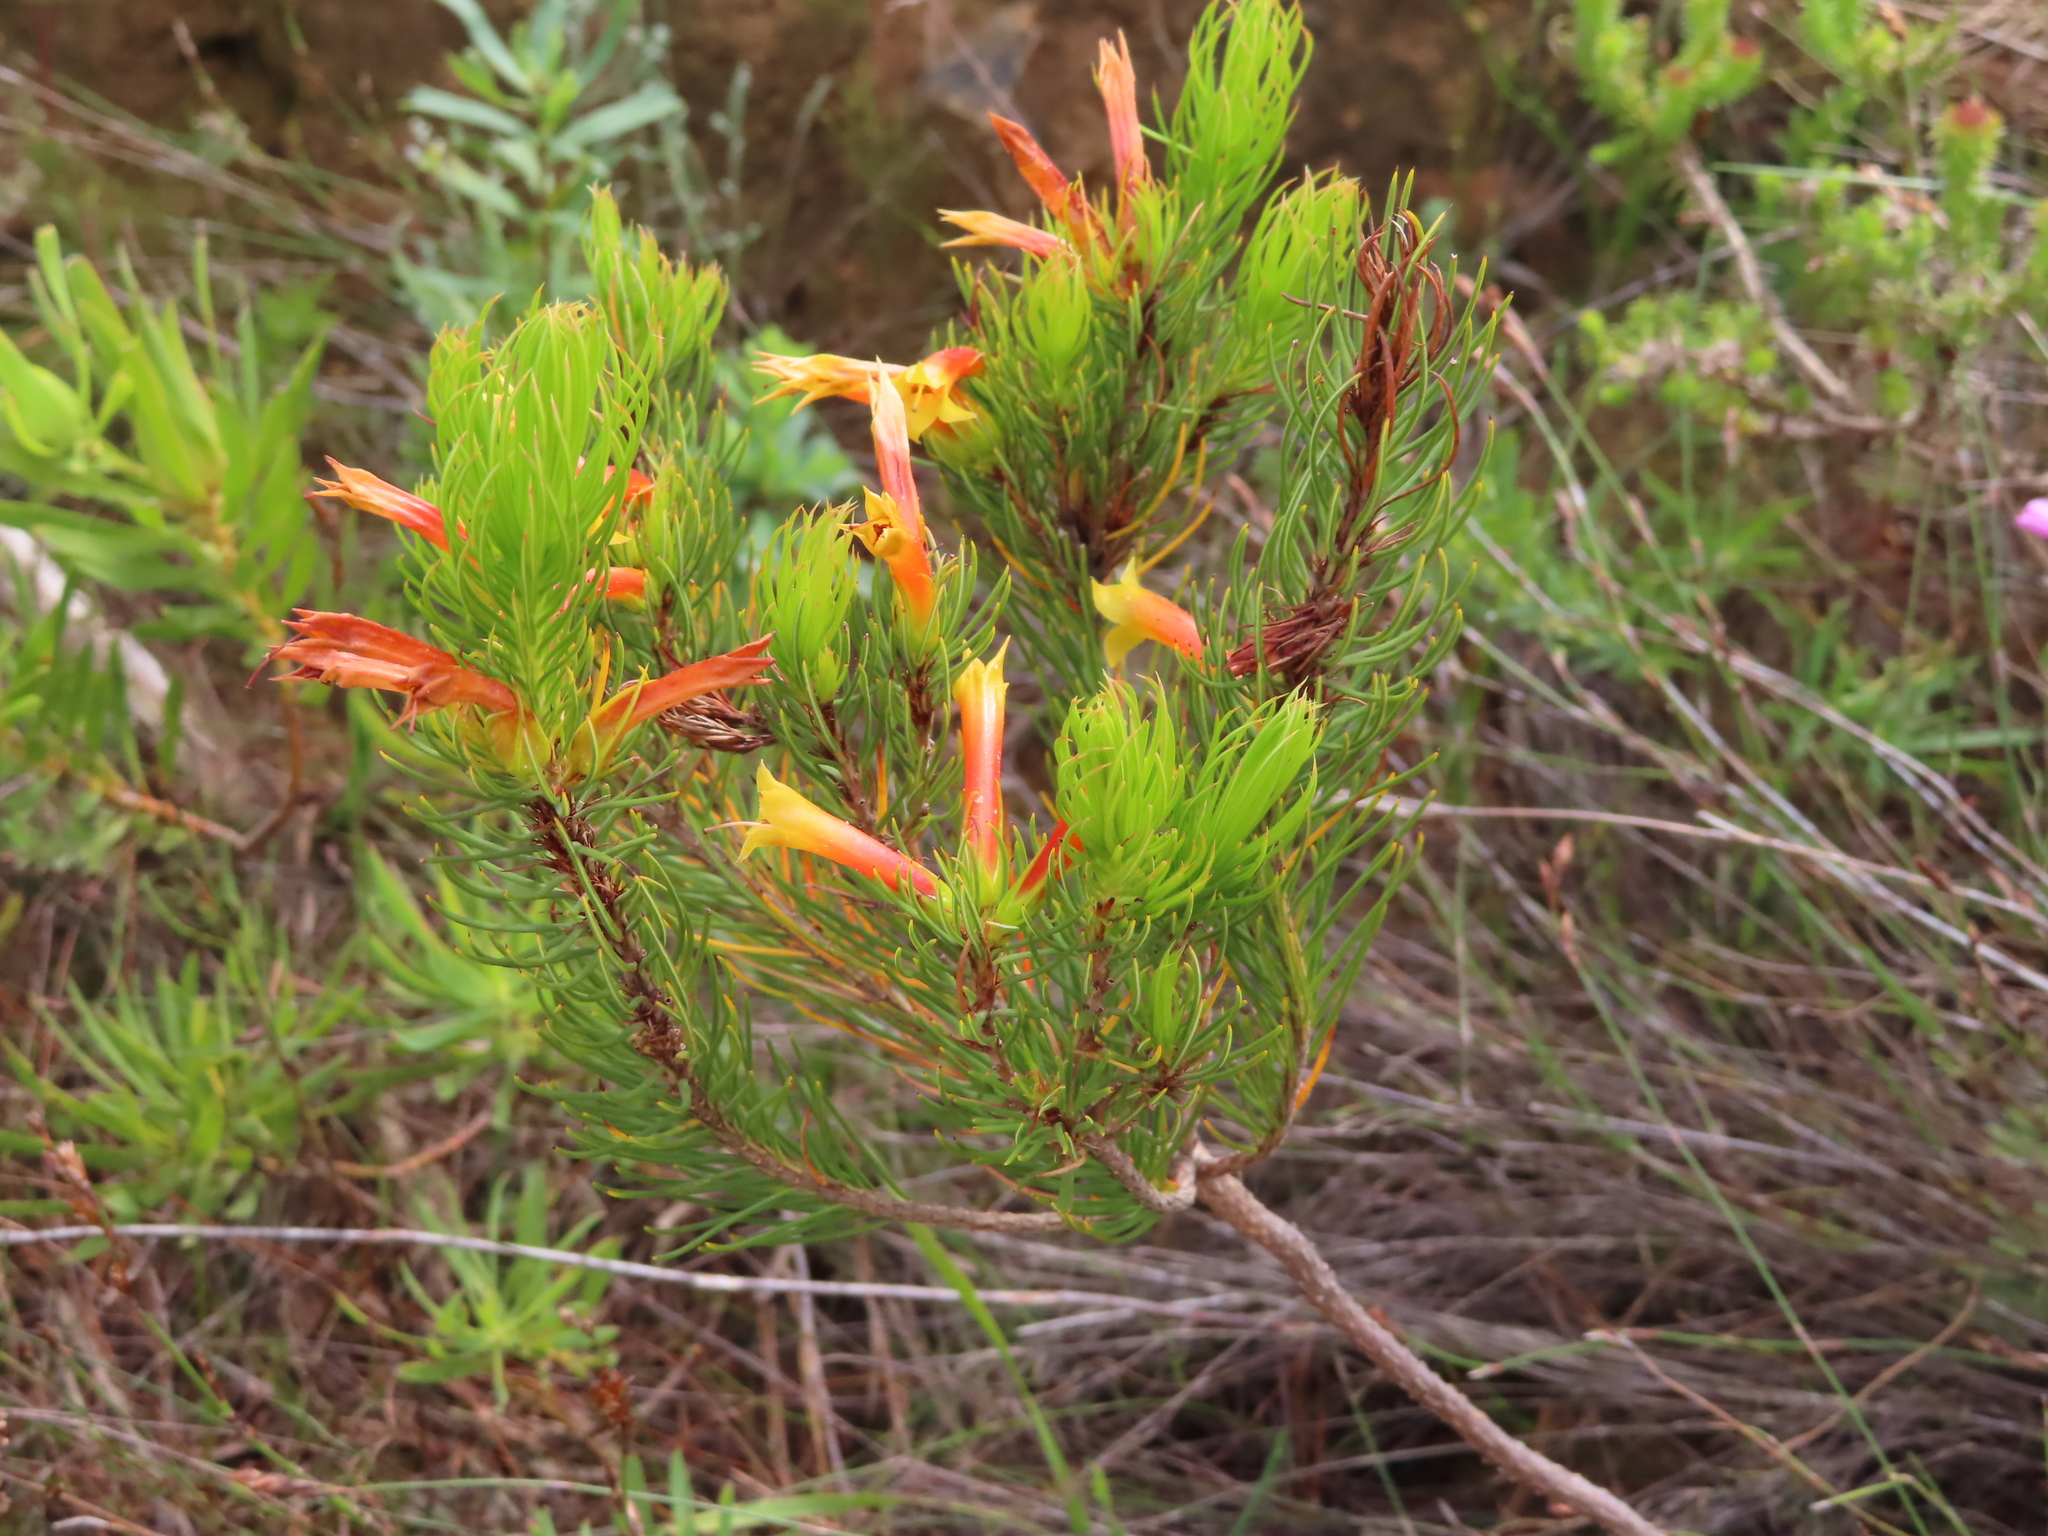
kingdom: Plantae
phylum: Tracheophyta
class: Magnoliopsida
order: Ericales
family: Ericaceae
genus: Erica
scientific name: Erica grandiflora
